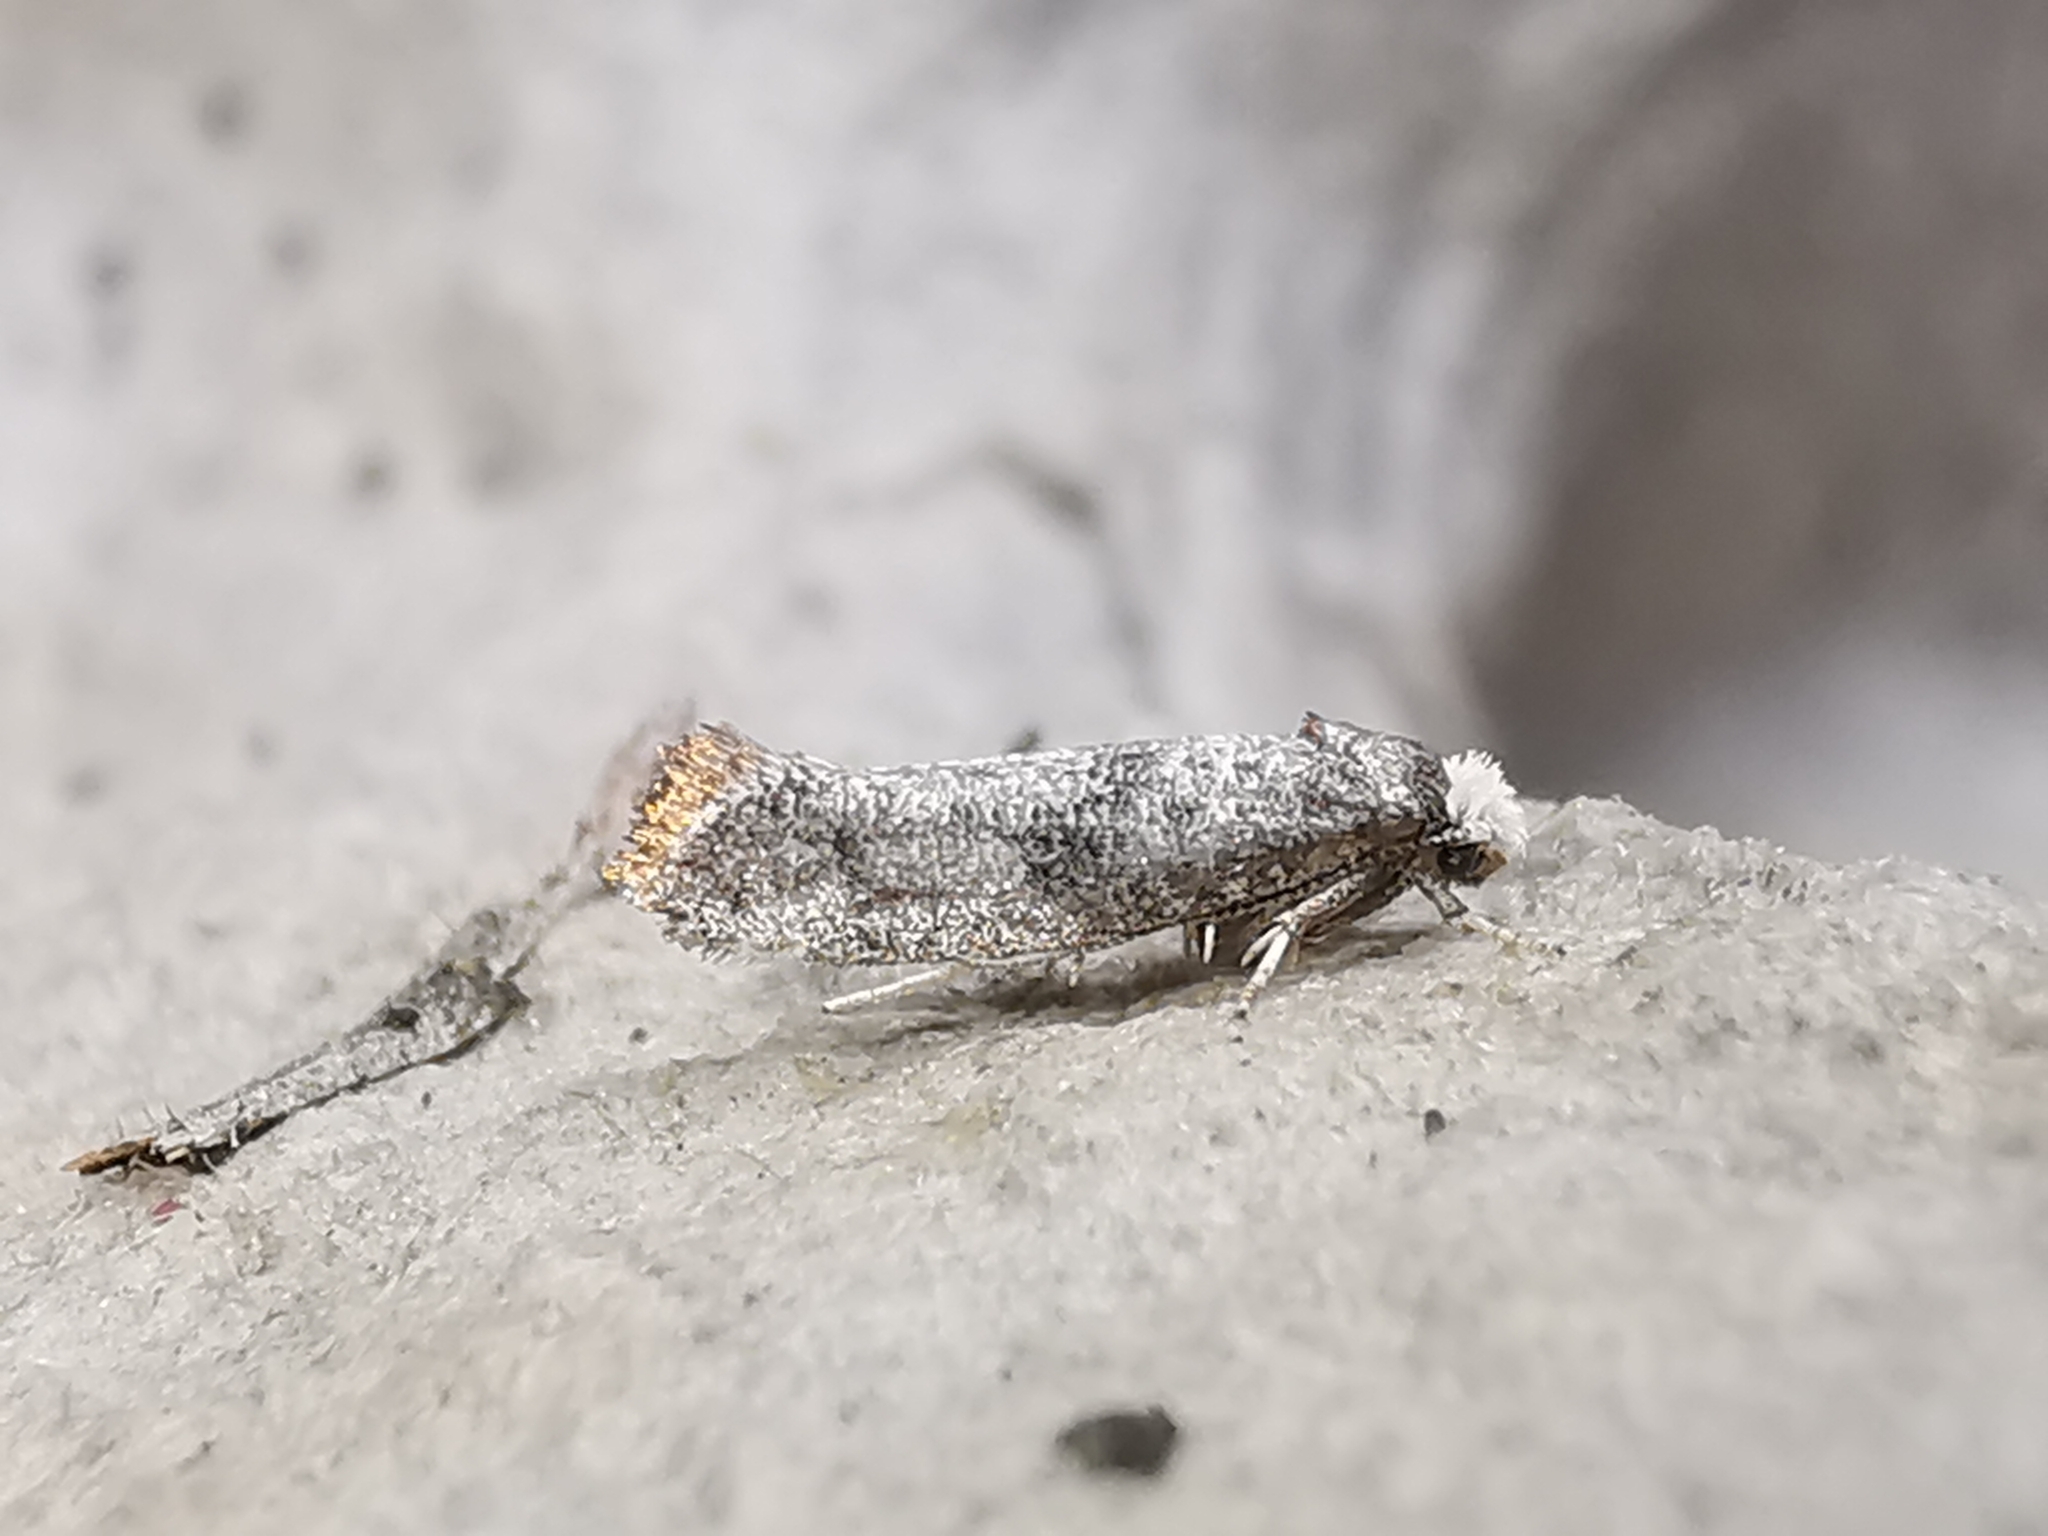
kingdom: Animalia
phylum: Arthropoda
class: Insecta
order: Lepidoptera
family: Yponomeutidae
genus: Paraswammerdamia
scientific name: Paraswammerdamia lutarea
